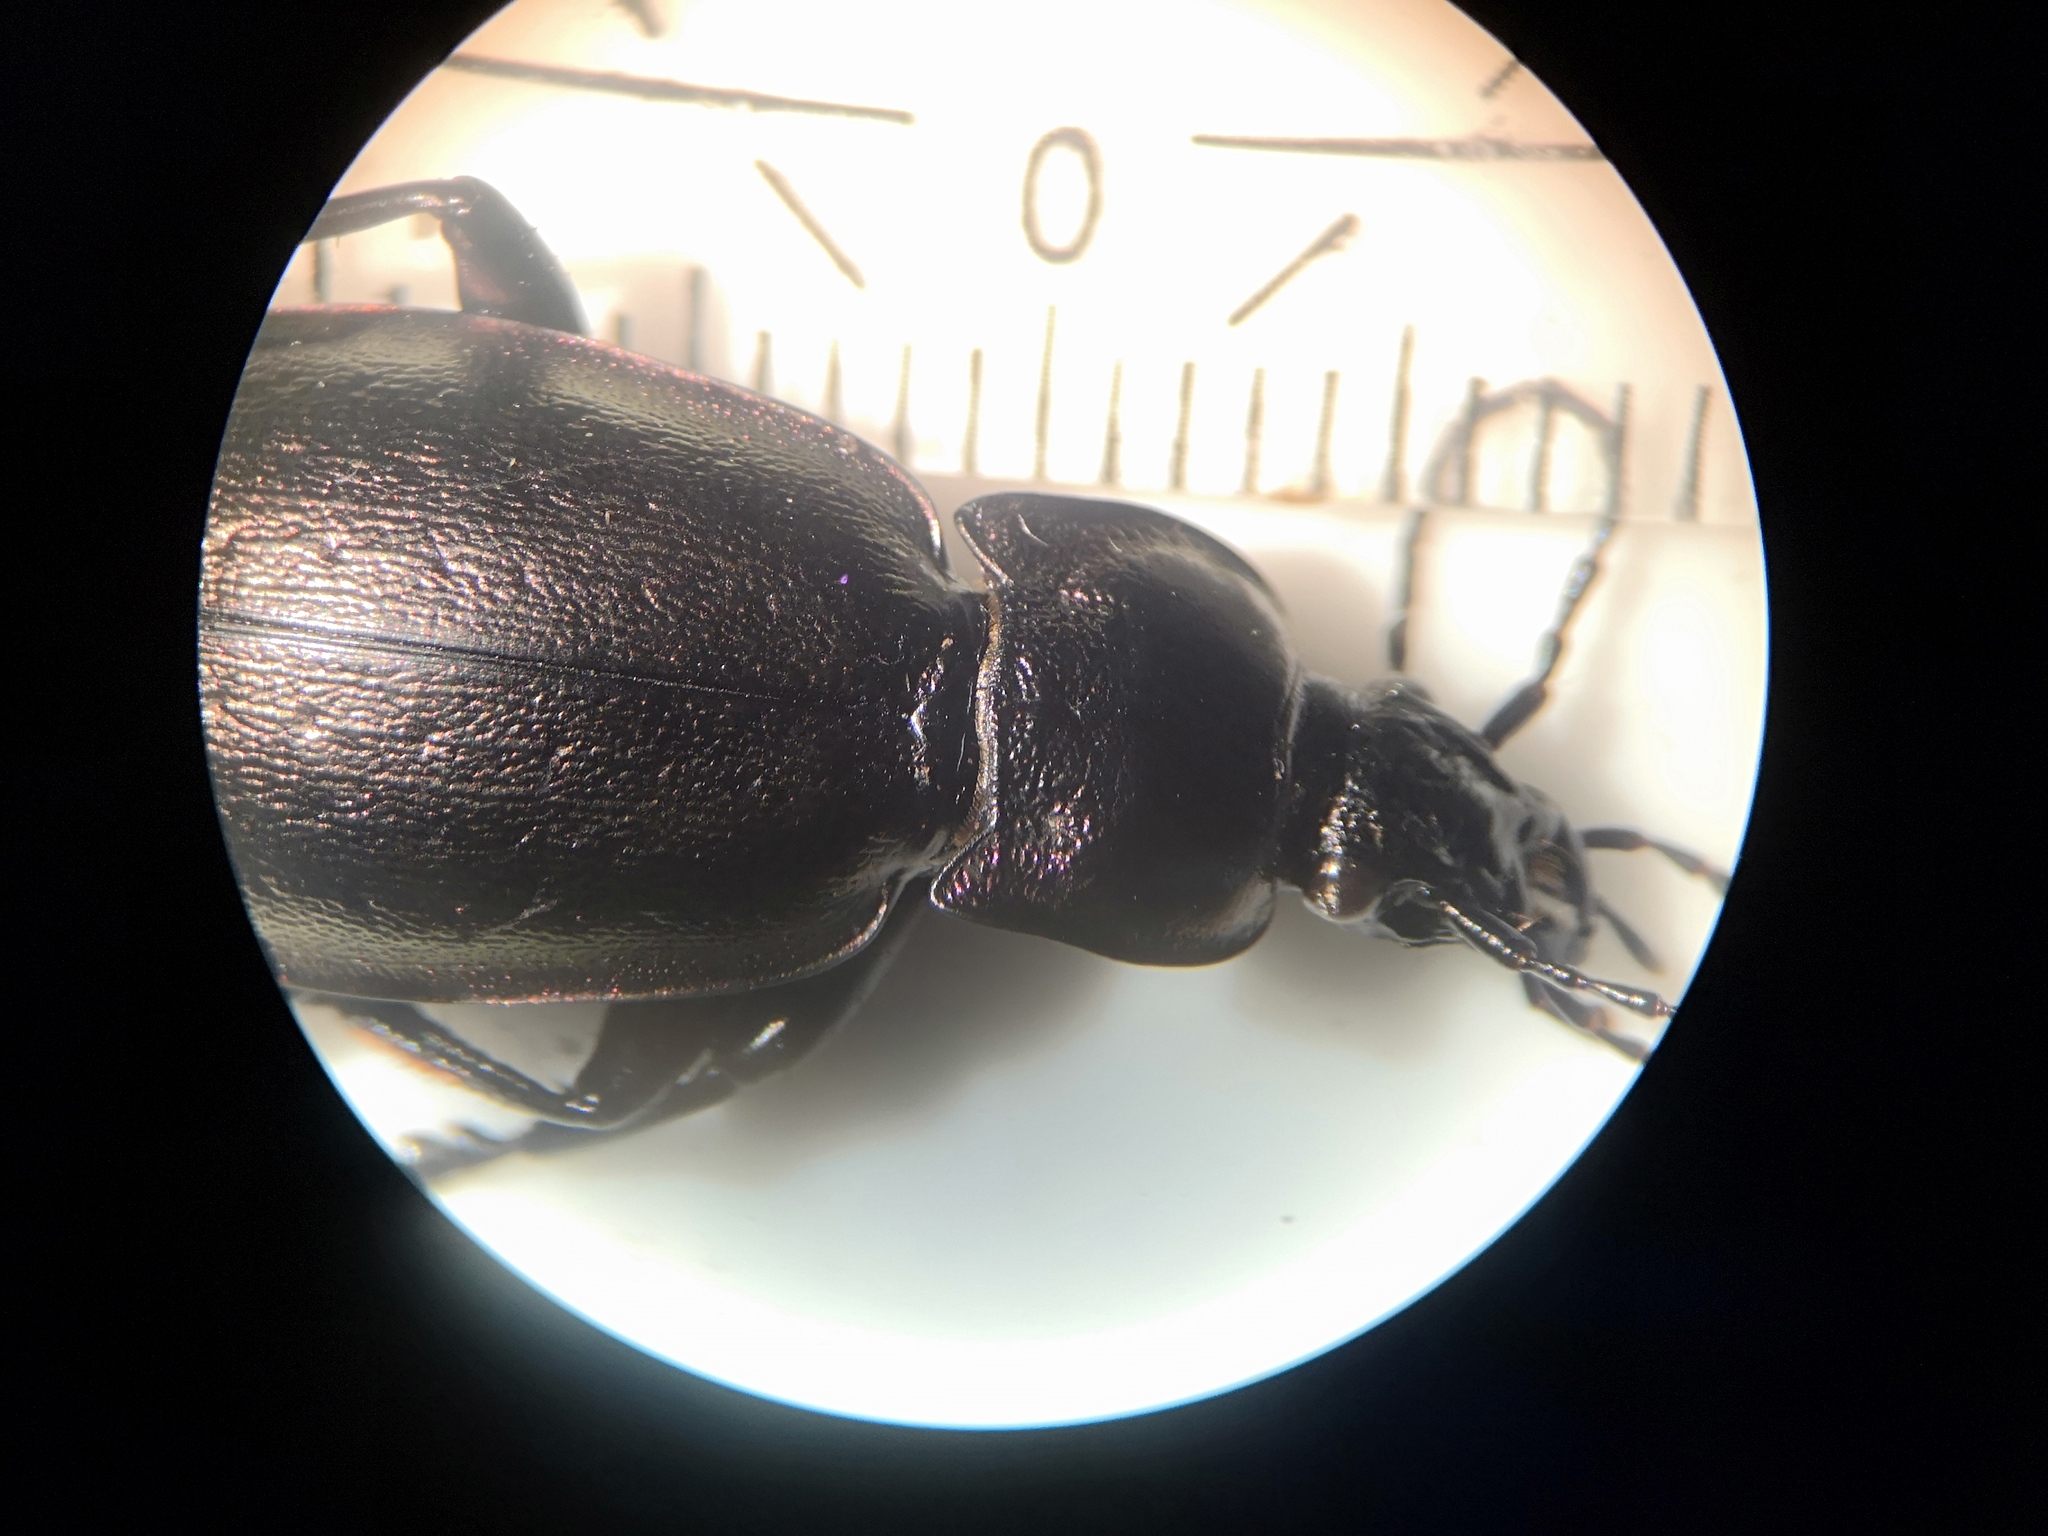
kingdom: Animalia
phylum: Arthropoda
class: Insecta
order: Coleoptera
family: Carabidae
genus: Carabus
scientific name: Carabus nemoralis
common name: European ground beetle
